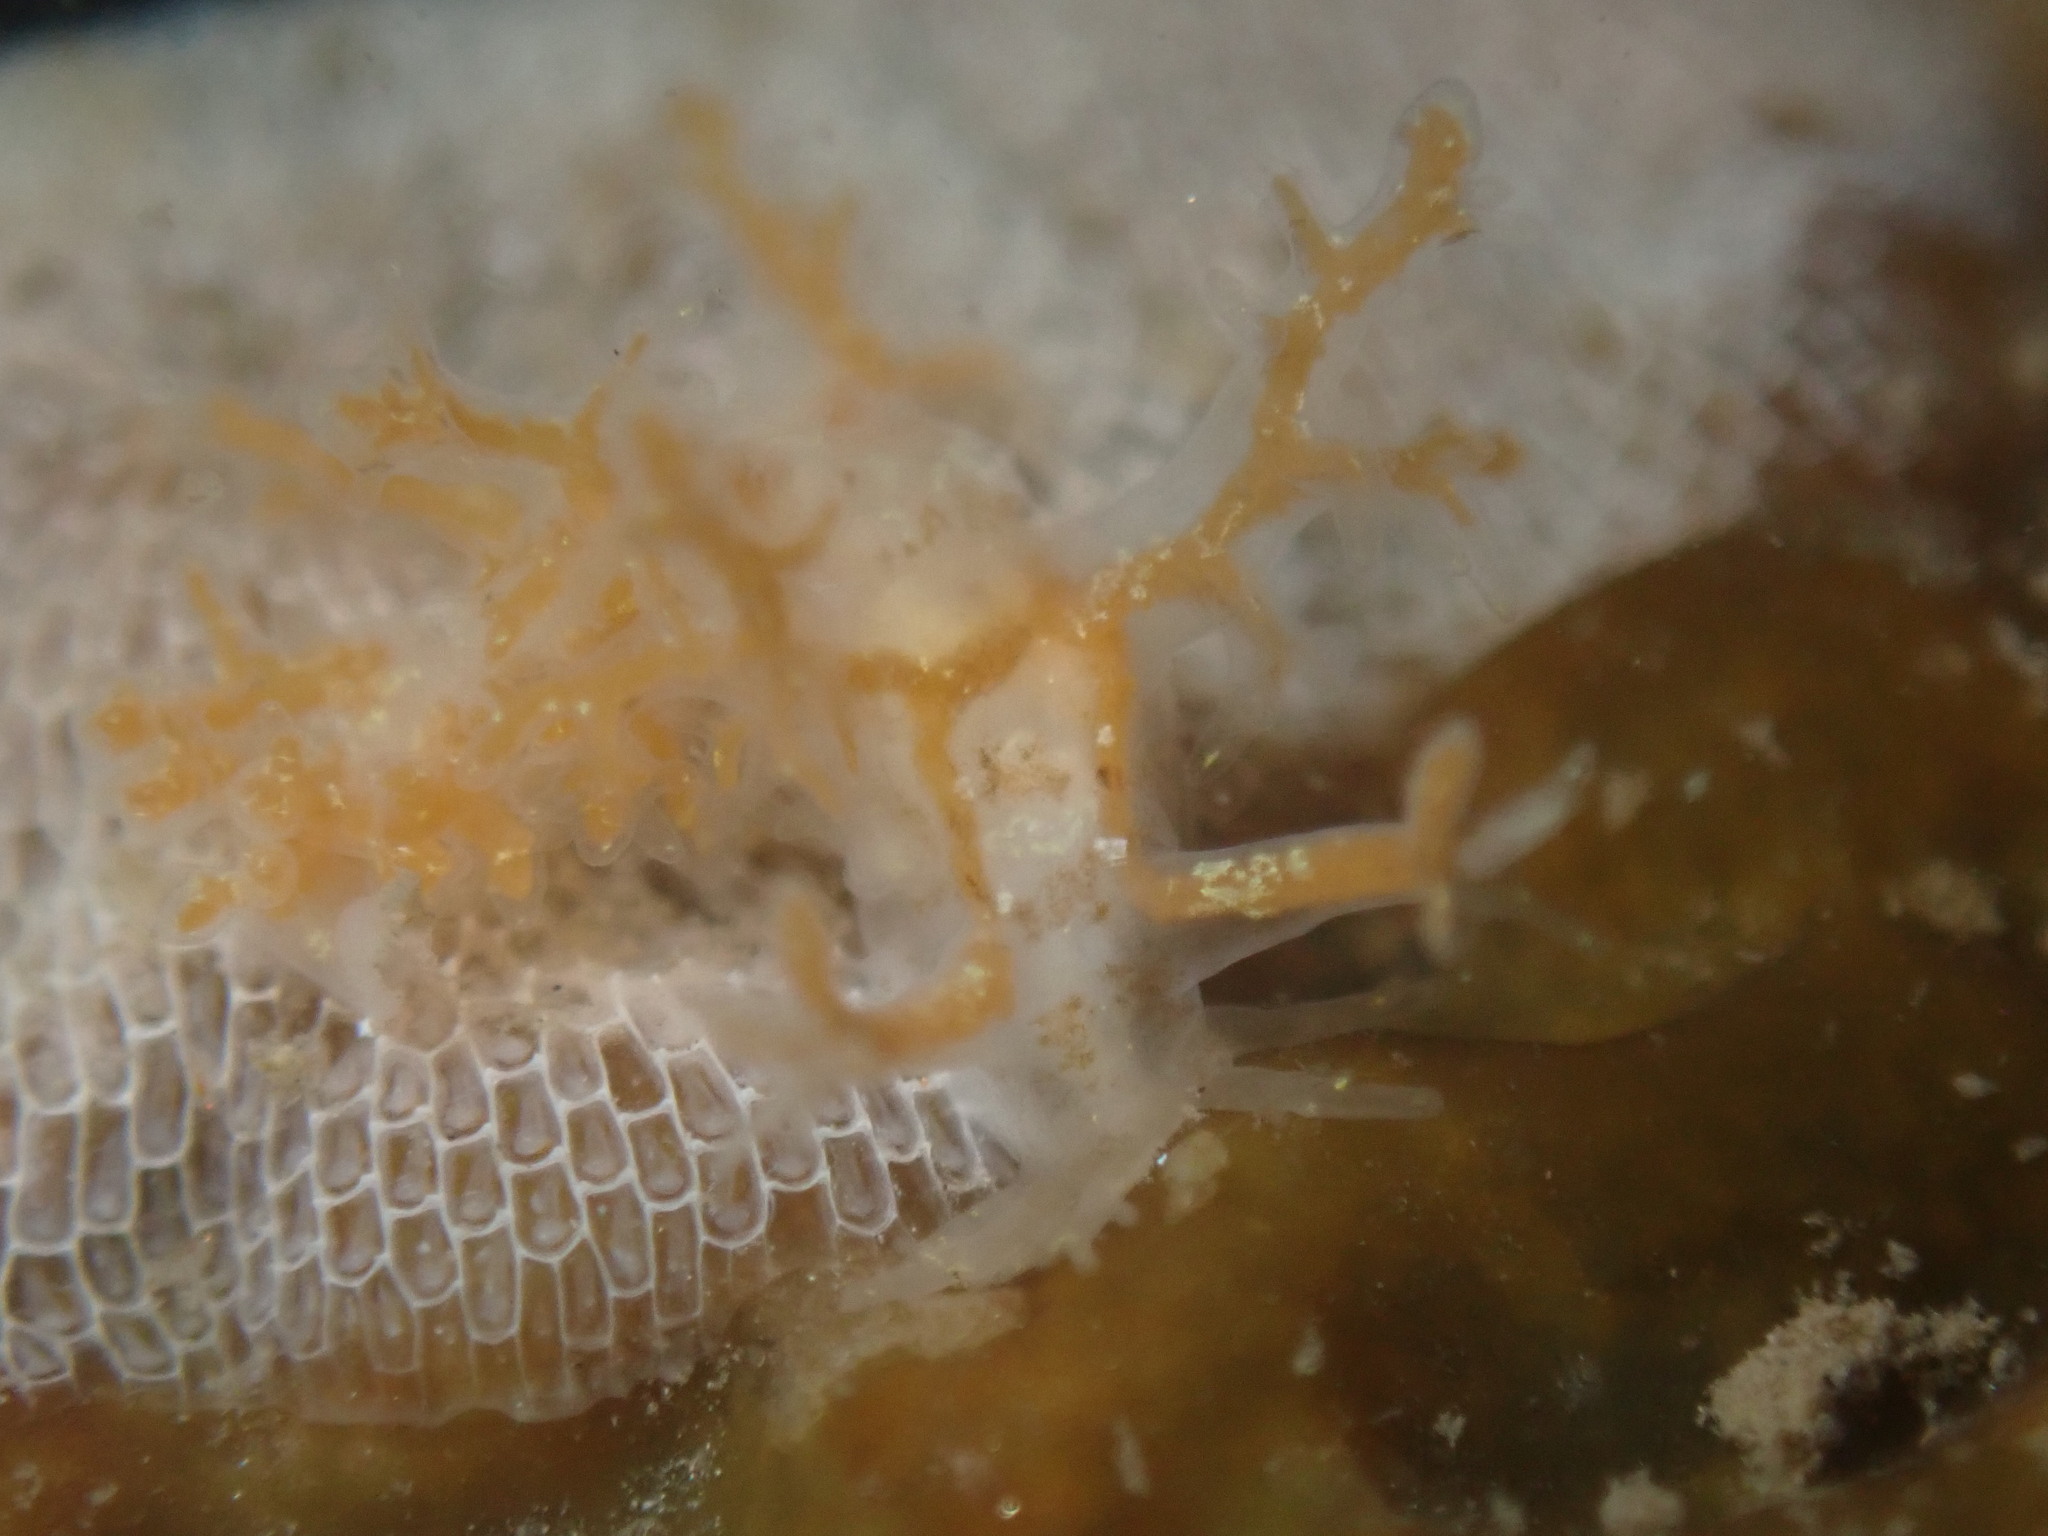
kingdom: Animalia
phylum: Mollusca
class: Gastropoda
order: Nudibranchia
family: Dendronotidae
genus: Dendronotus
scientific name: Dendronotus venustus
